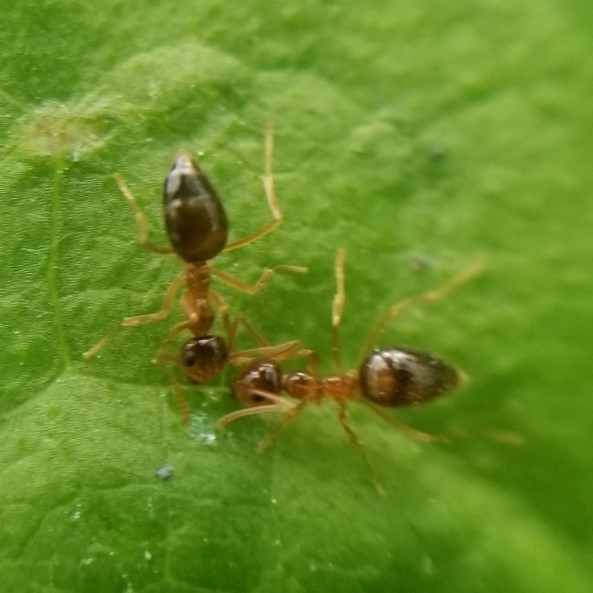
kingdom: Animalia
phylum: Arthropoda
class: Insecta
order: Hymenoptera
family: Formicidae
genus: Prenolepis
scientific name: Prenolepis imparis
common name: Small honey ant
